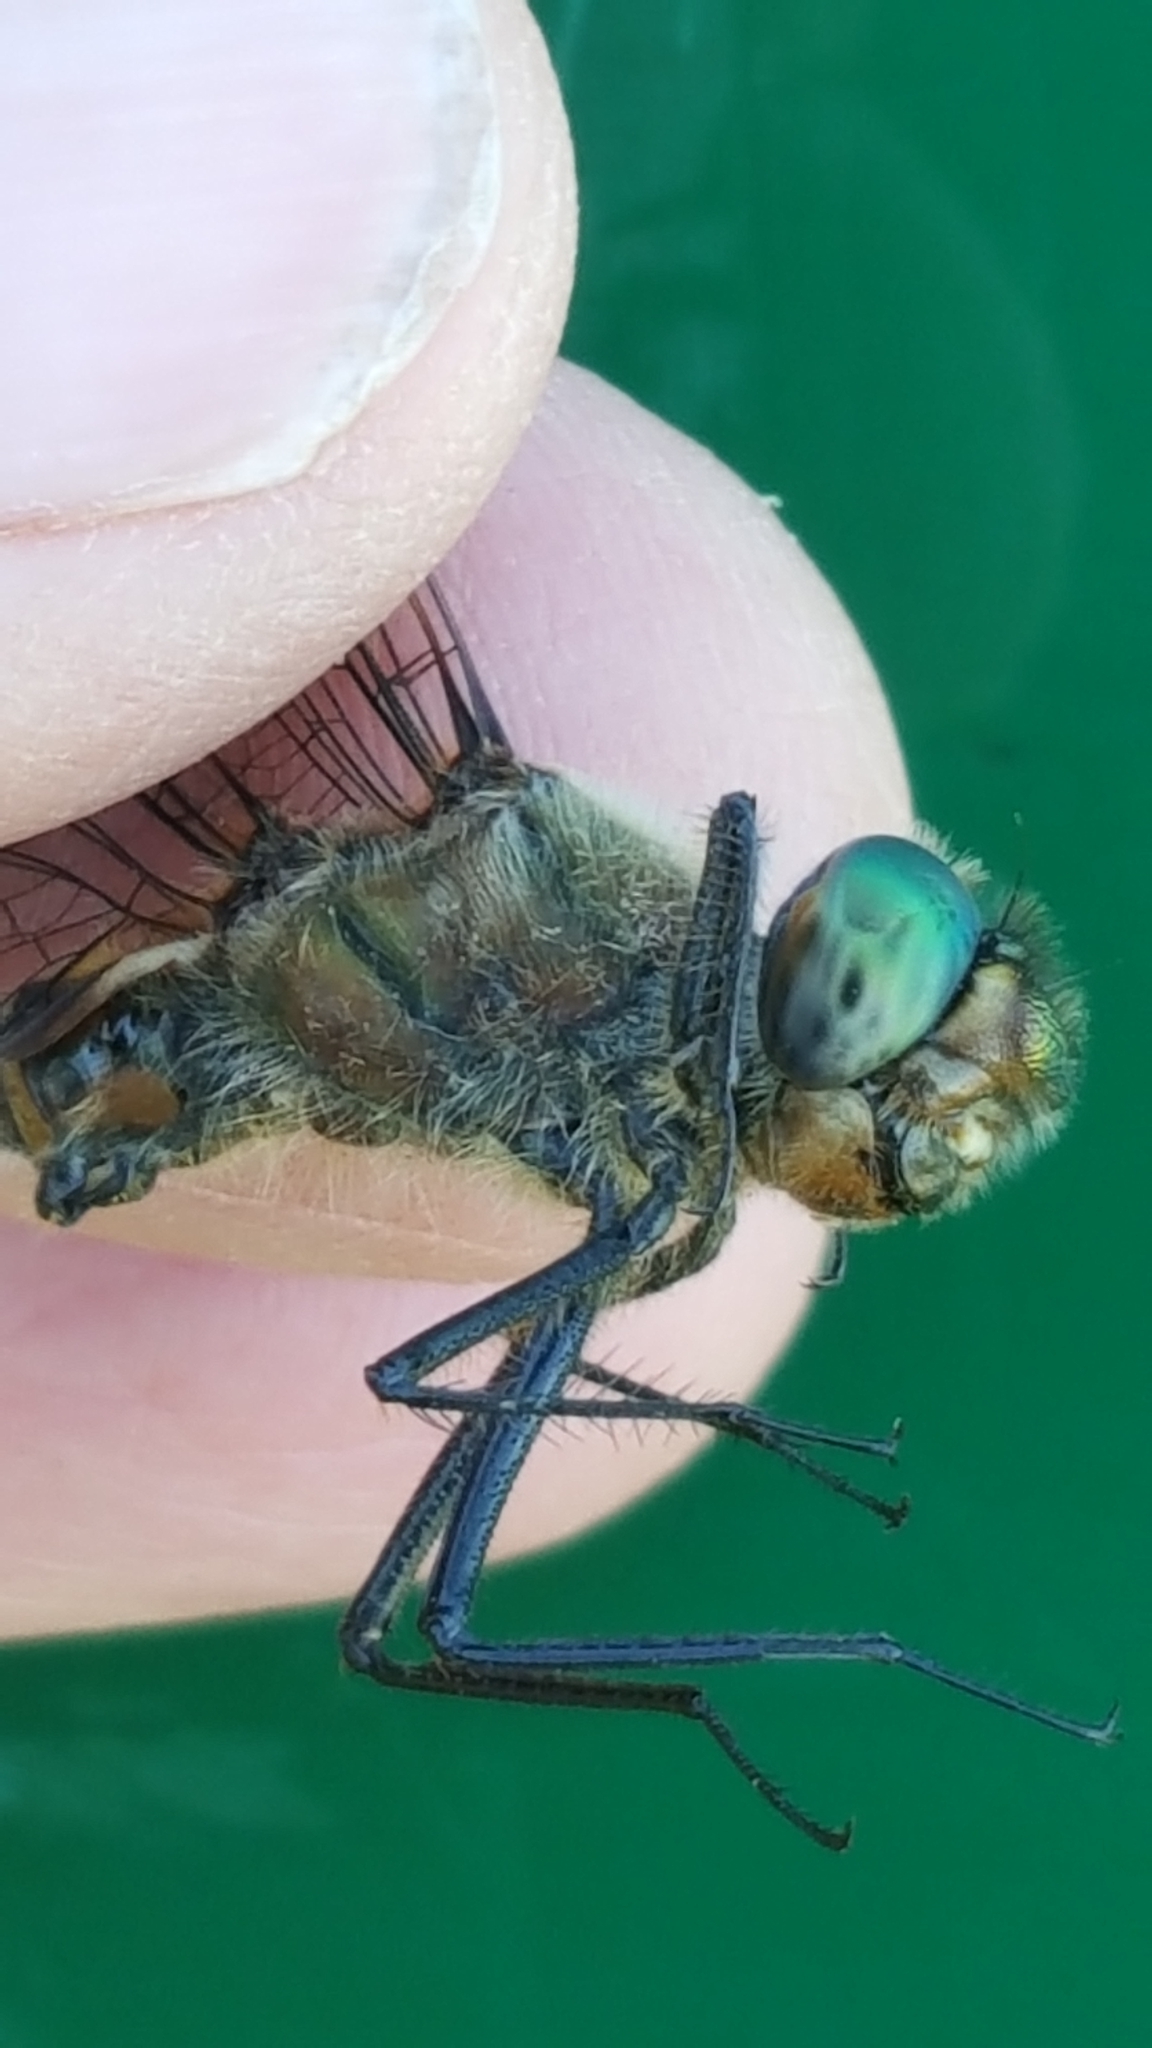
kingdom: Animalia
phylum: Arthropoda
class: Insecta
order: Odonata
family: Corduliidae
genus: Cordulia
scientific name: Cordulia shurtleffii
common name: American emerald
